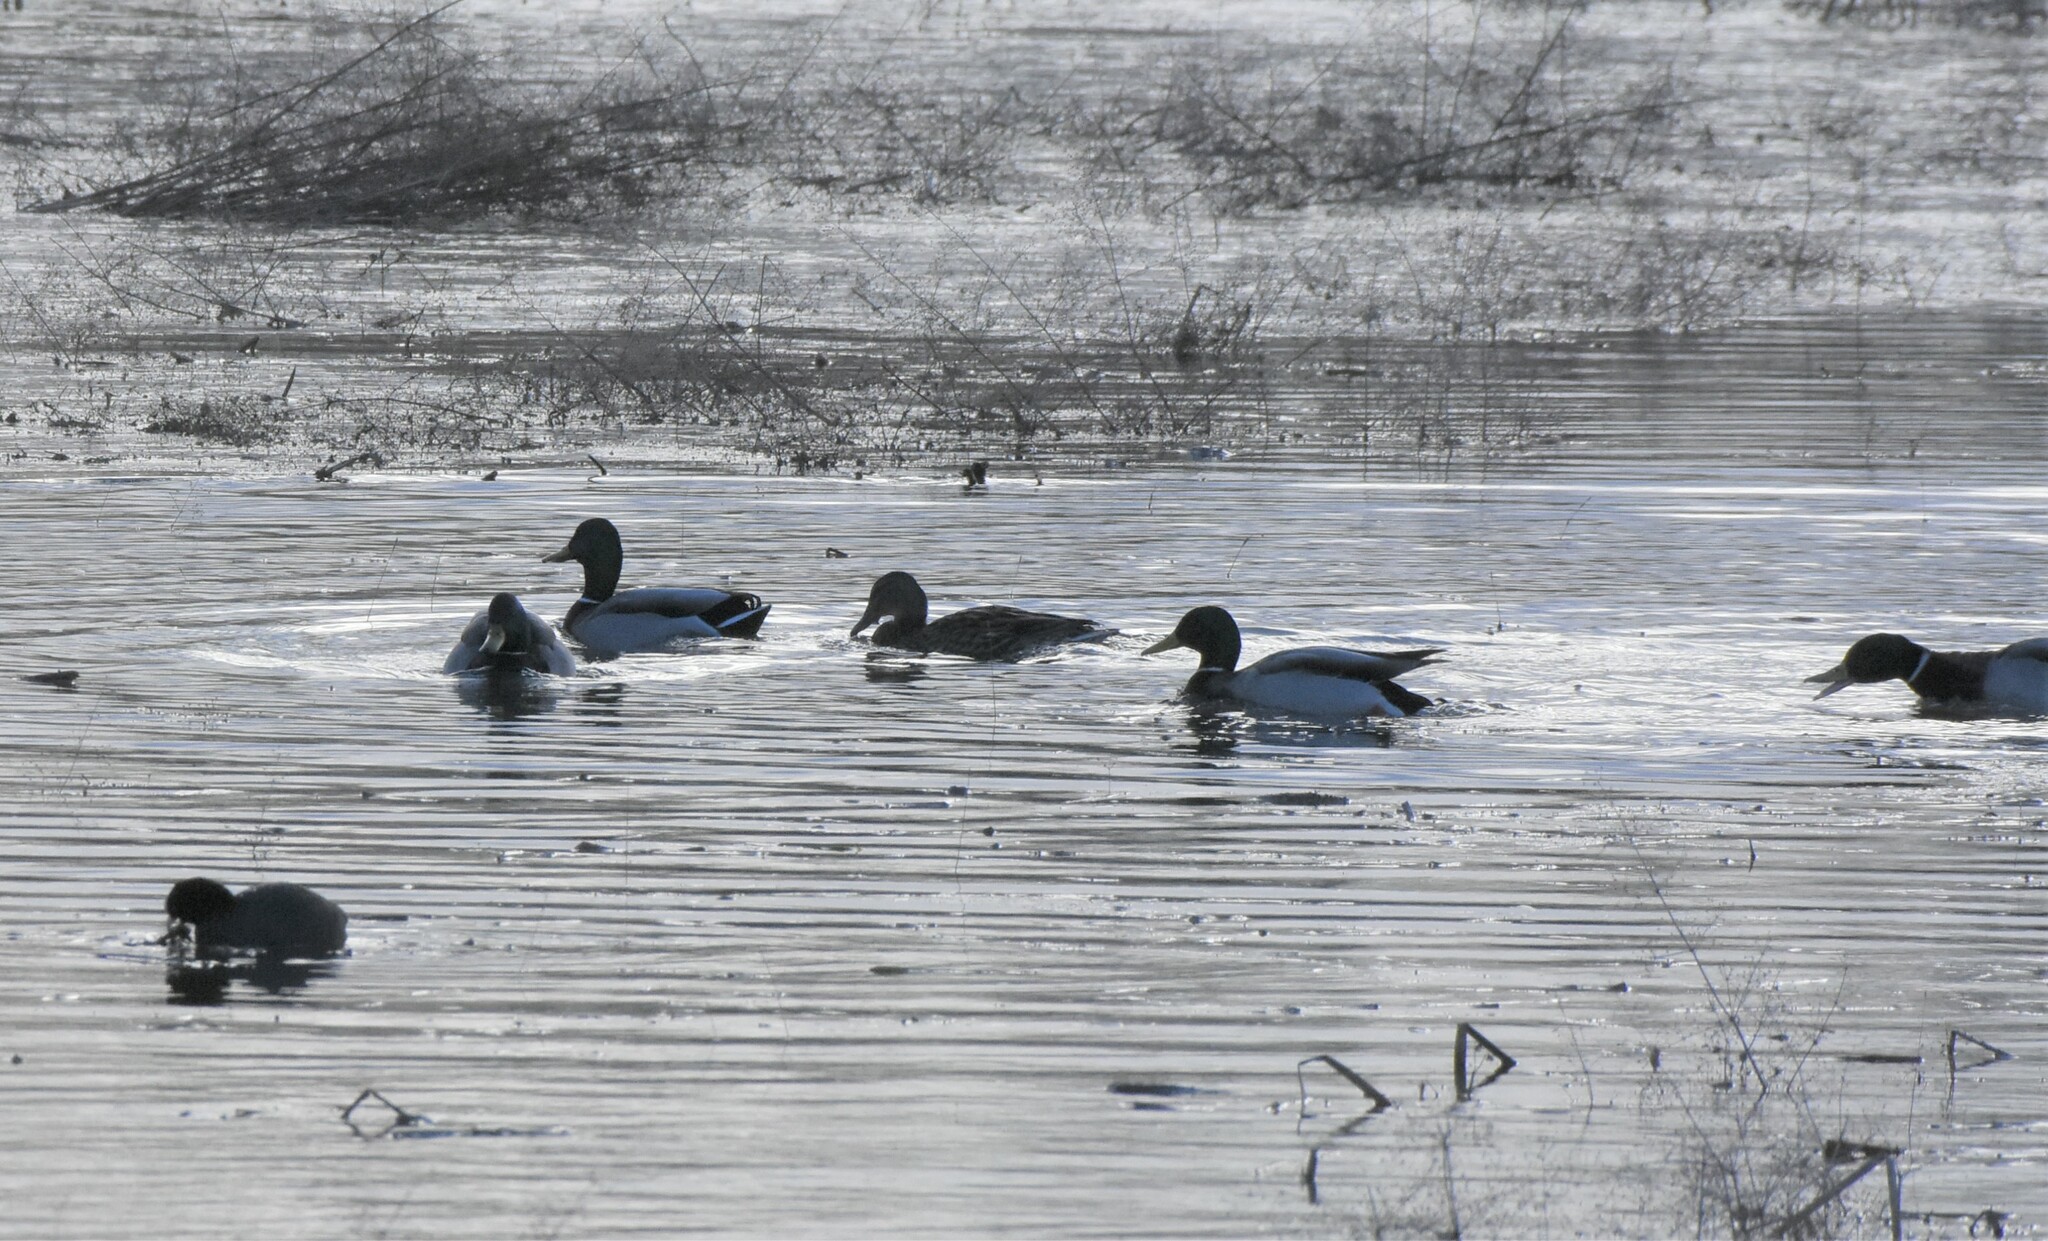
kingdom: Animalia
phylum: Chordata
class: Aves
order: Anseriformes
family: Anatidae
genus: Anas
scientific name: Anas platyrhynchos
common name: Mallard
